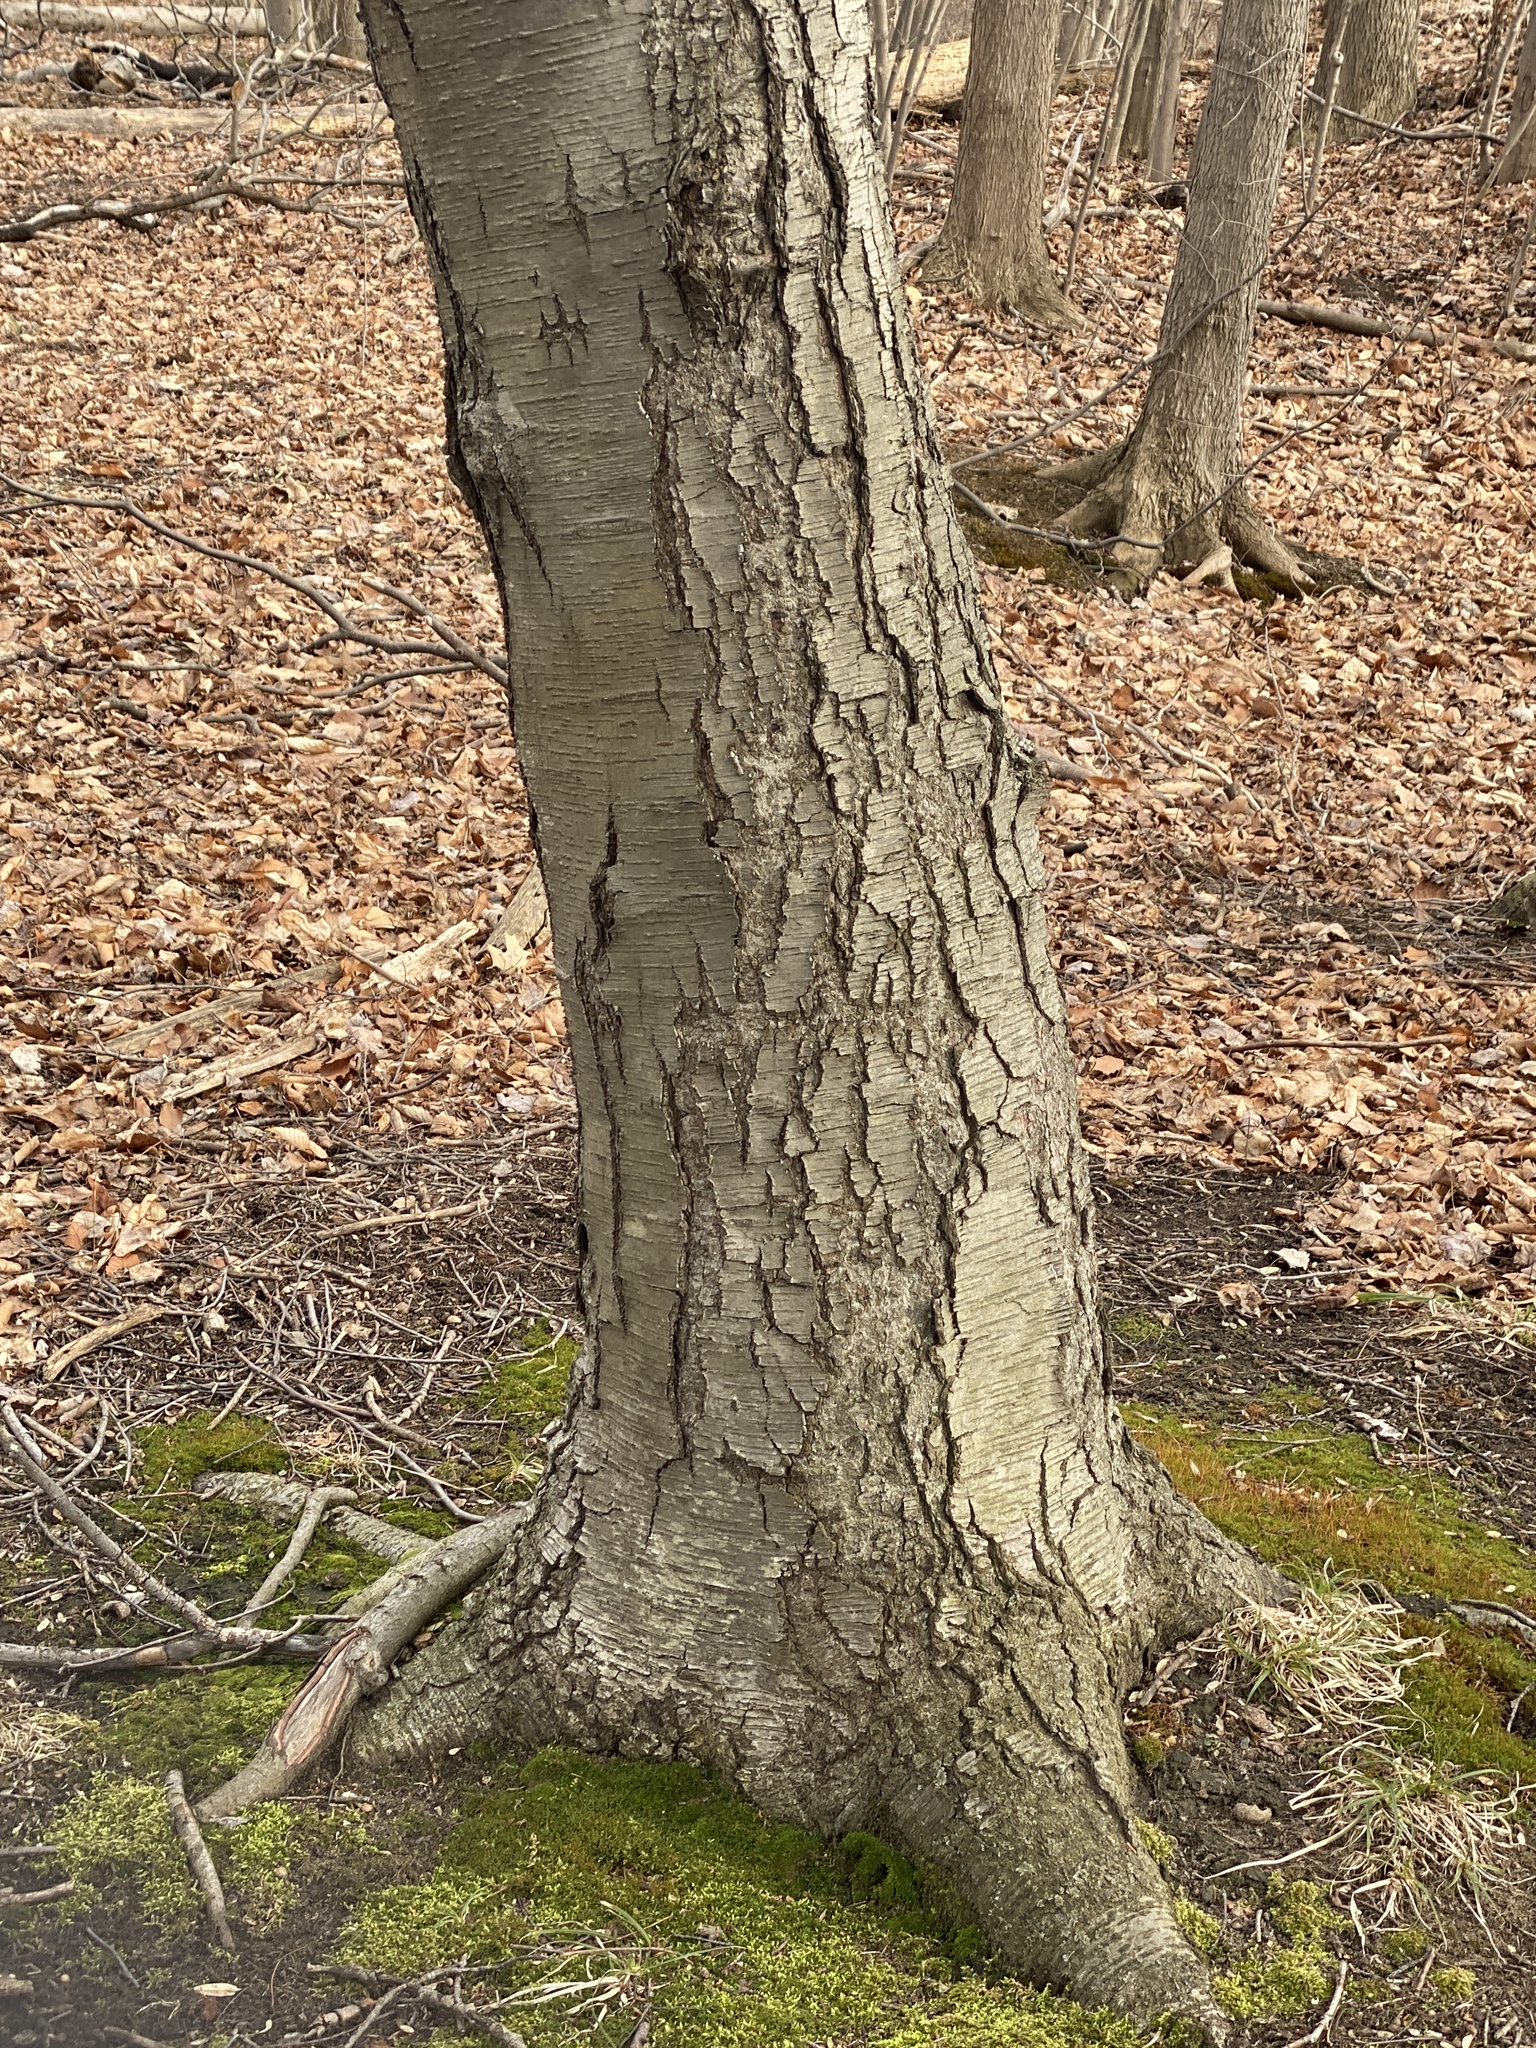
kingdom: Plantae
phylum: Tracheophyta
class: Magnoliopsida
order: Fagales
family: Betulaceae
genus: Betula
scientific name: Betula lenta
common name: Black birch
